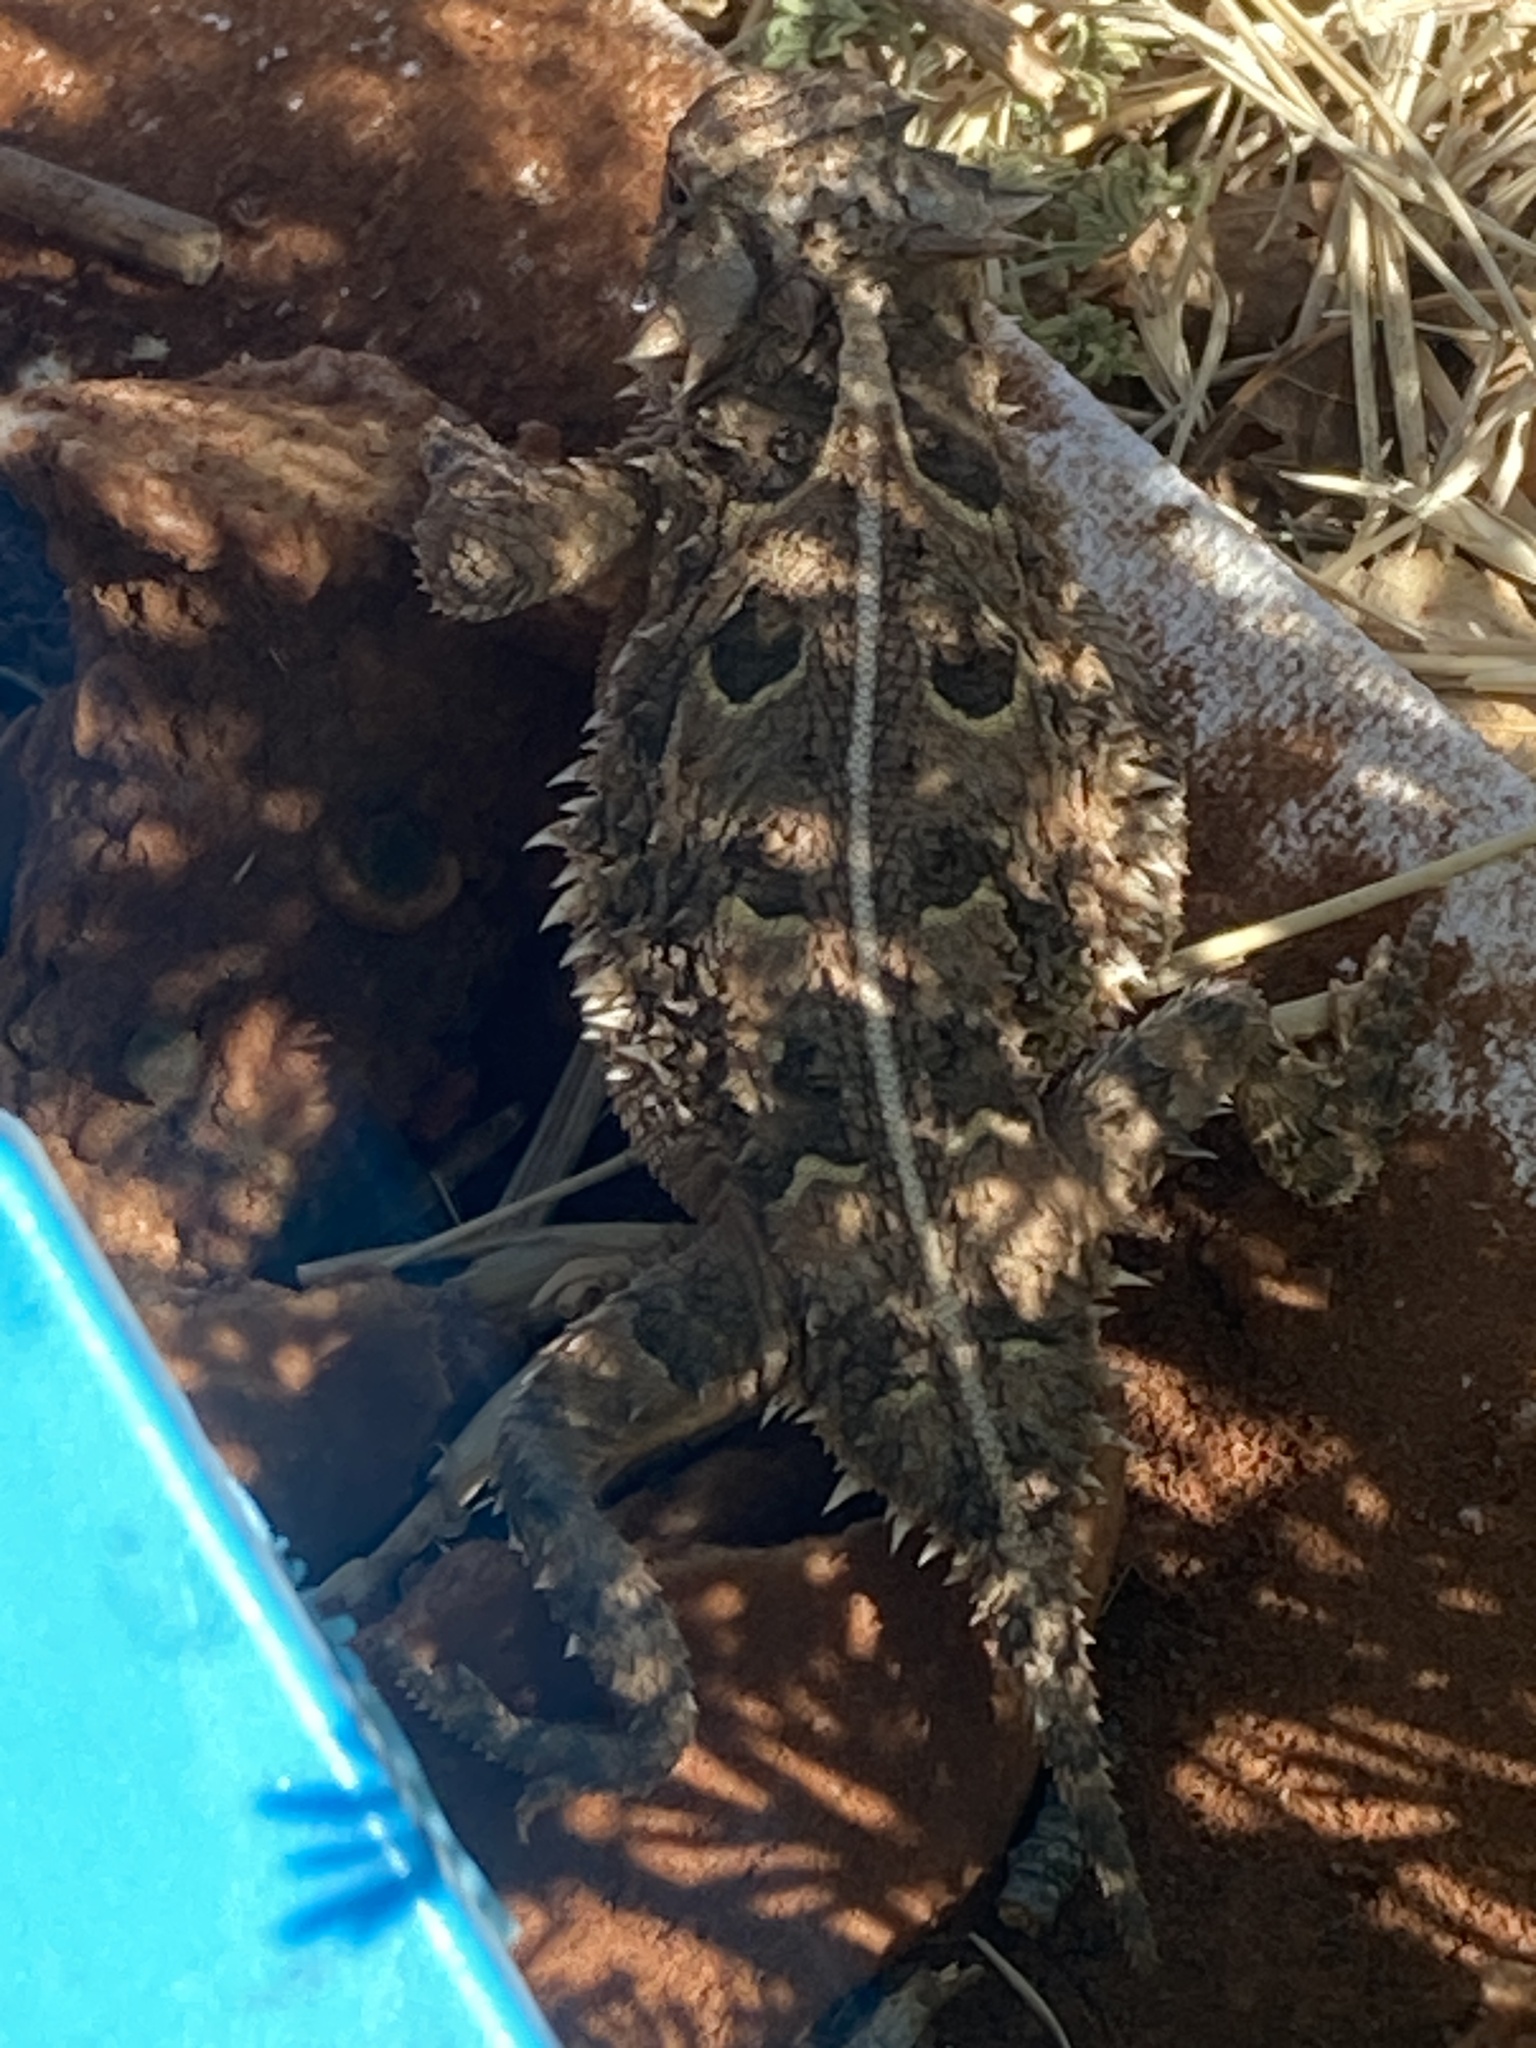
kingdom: Animalia
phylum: Chordata
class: Squamata
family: Phrynosomatidae
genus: Phrynosoma
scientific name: Phrynosoma cornutum
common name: Texas horned lizard
